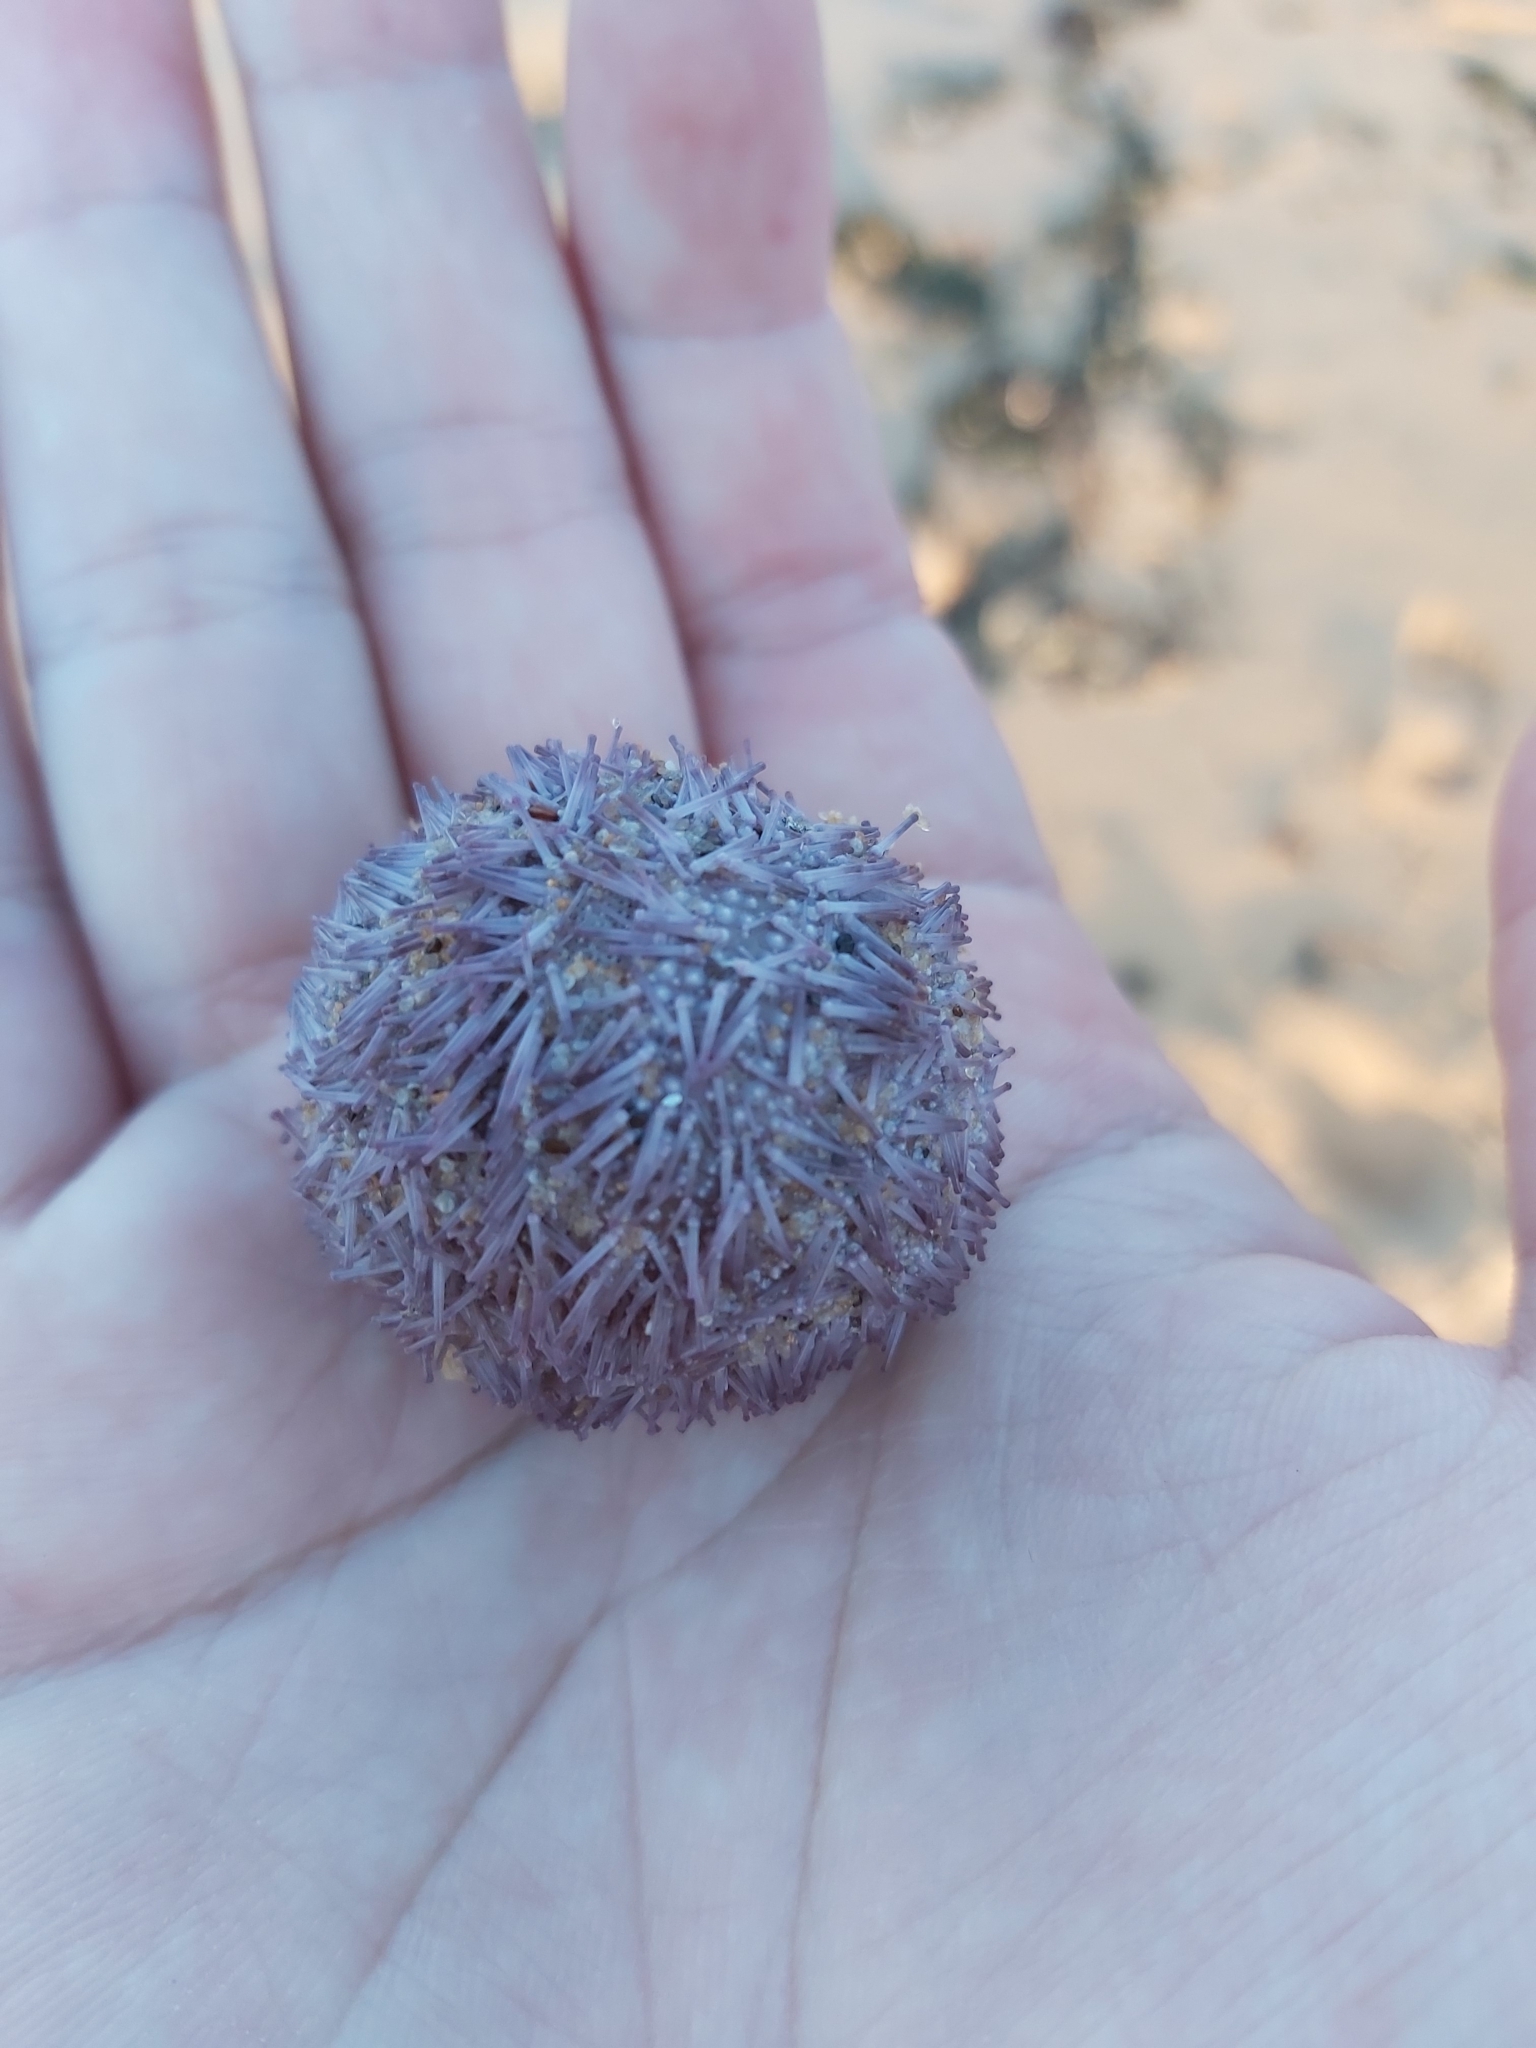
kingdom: Animalia
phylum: Echinodermata
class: Echinoidea
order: Camarodonta
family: Temnopleuridae
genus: Holopneustes
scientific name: Holopneustes purpurascens
